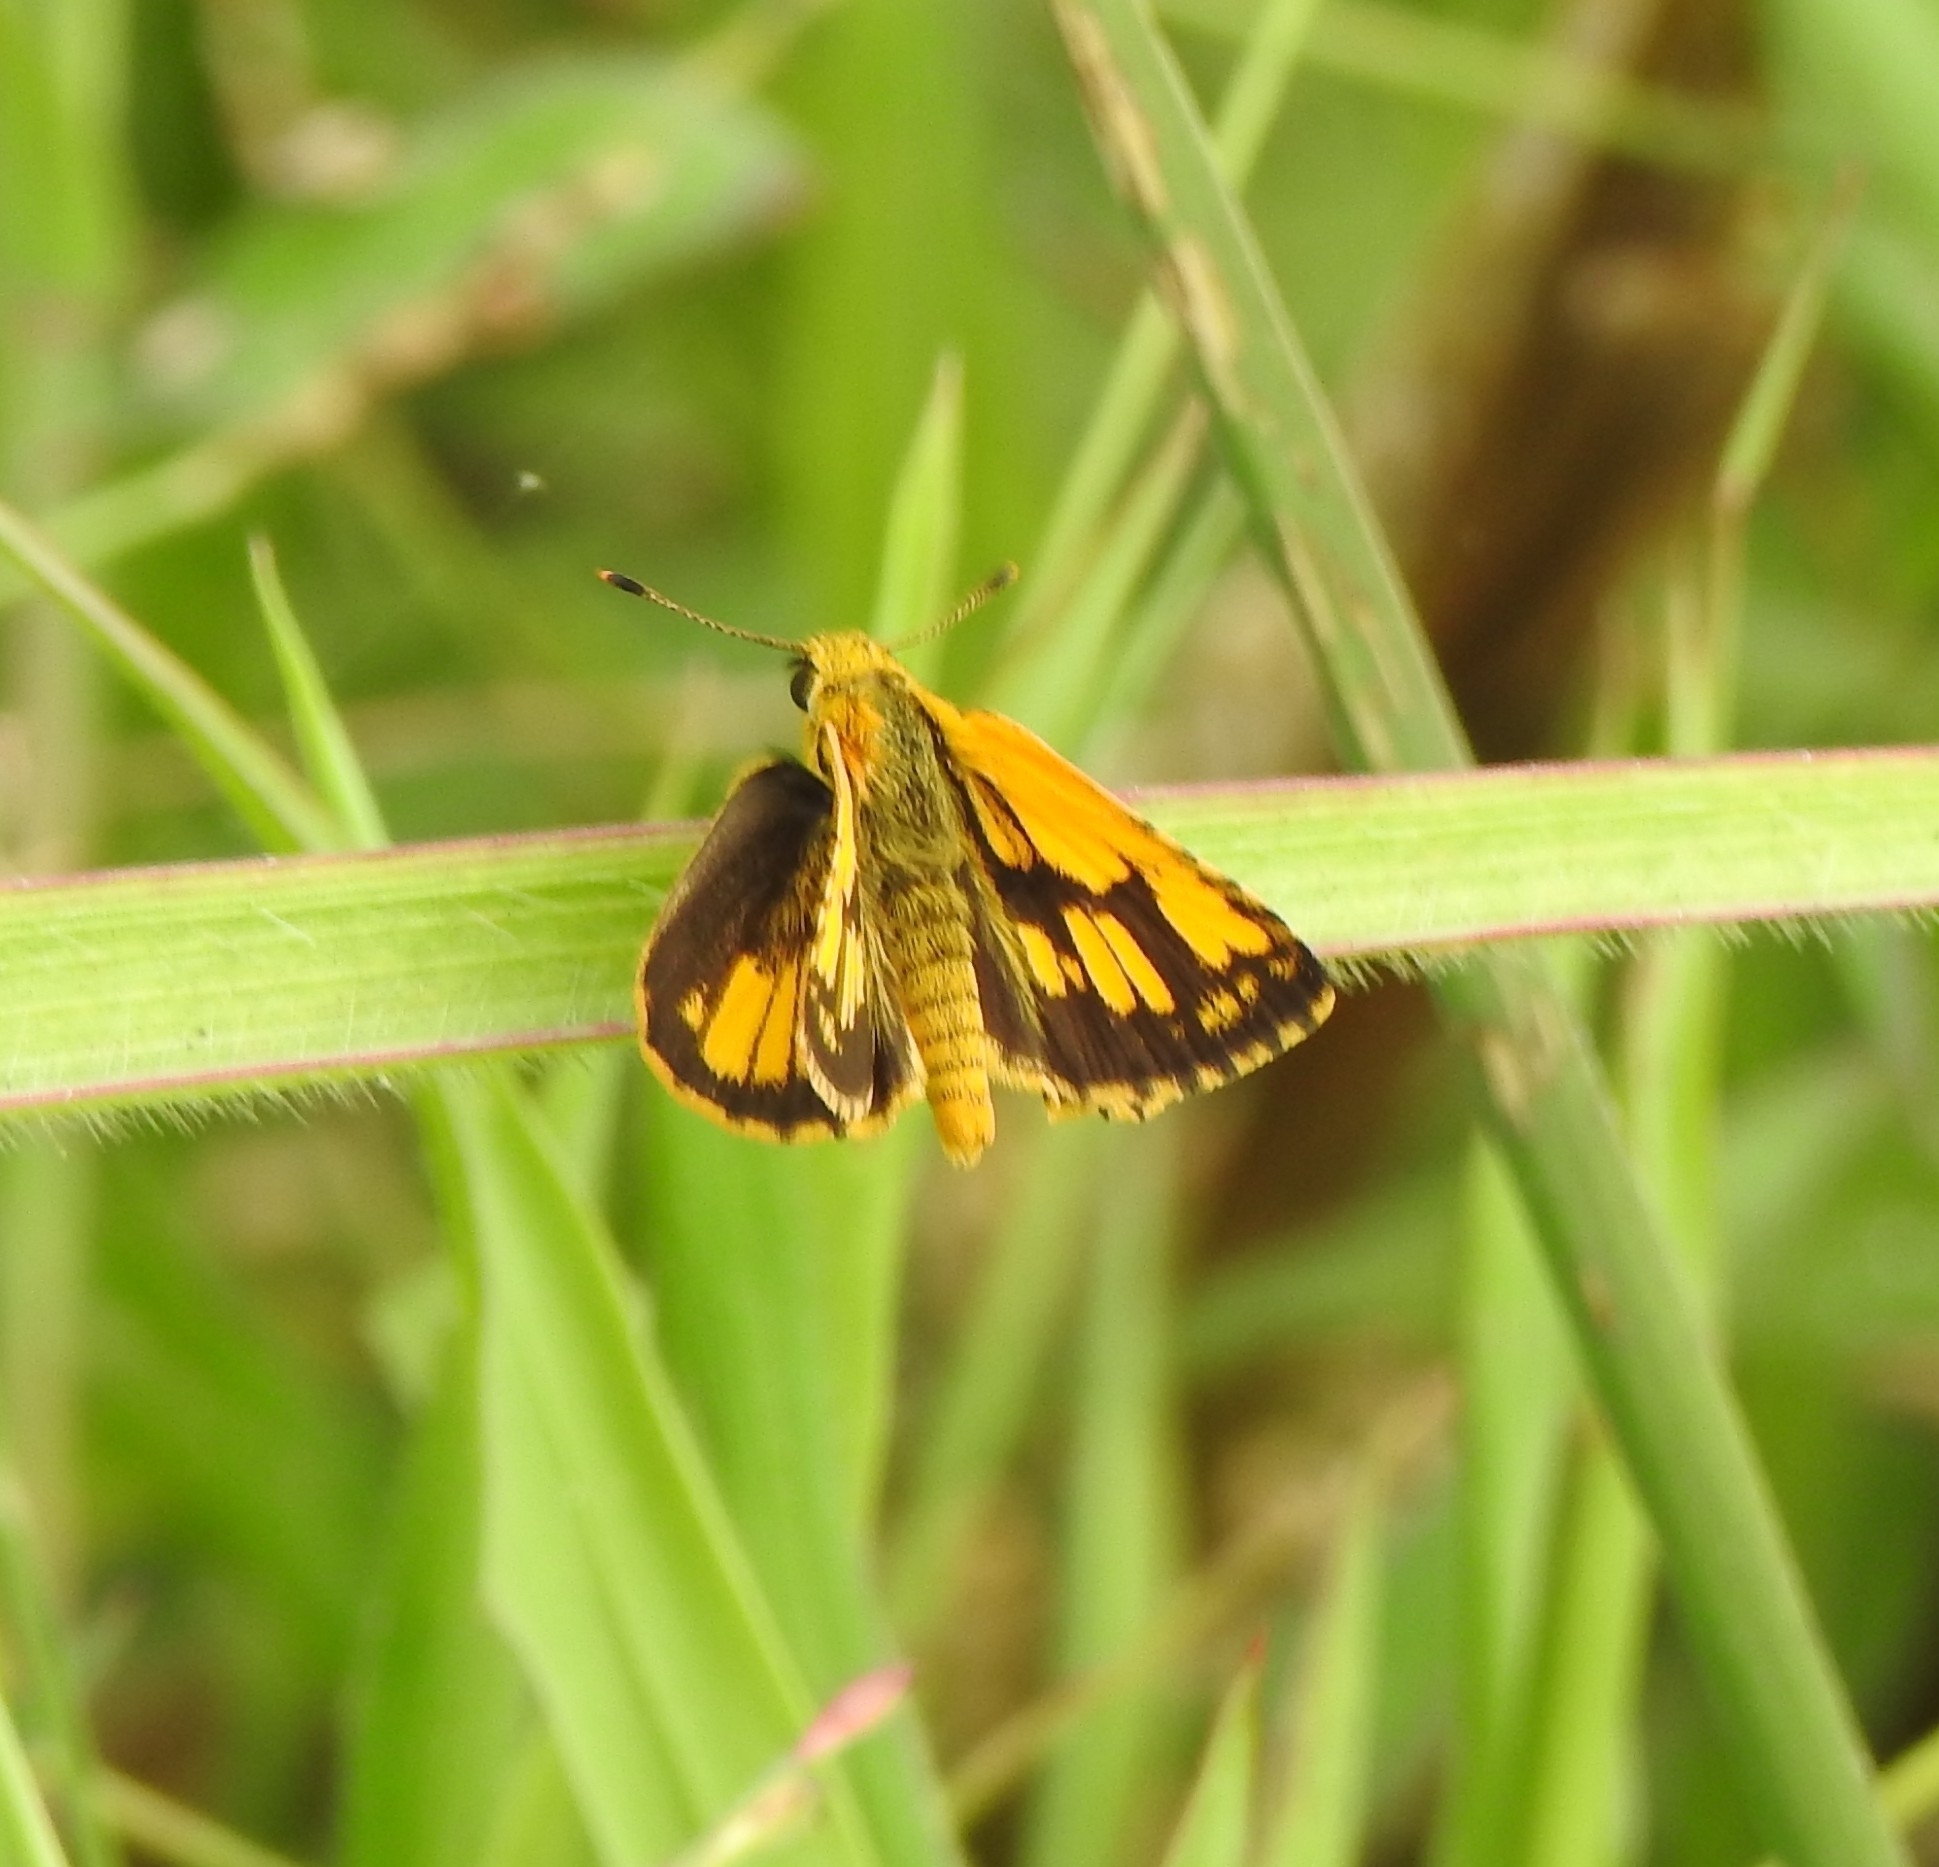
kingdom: Animalia
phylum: Arthropoda
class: Insecta
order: Lepidoptera
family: Hesperiidae
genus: Ampittia
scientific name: Ampittia dioscorides
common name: Common bush hopper
